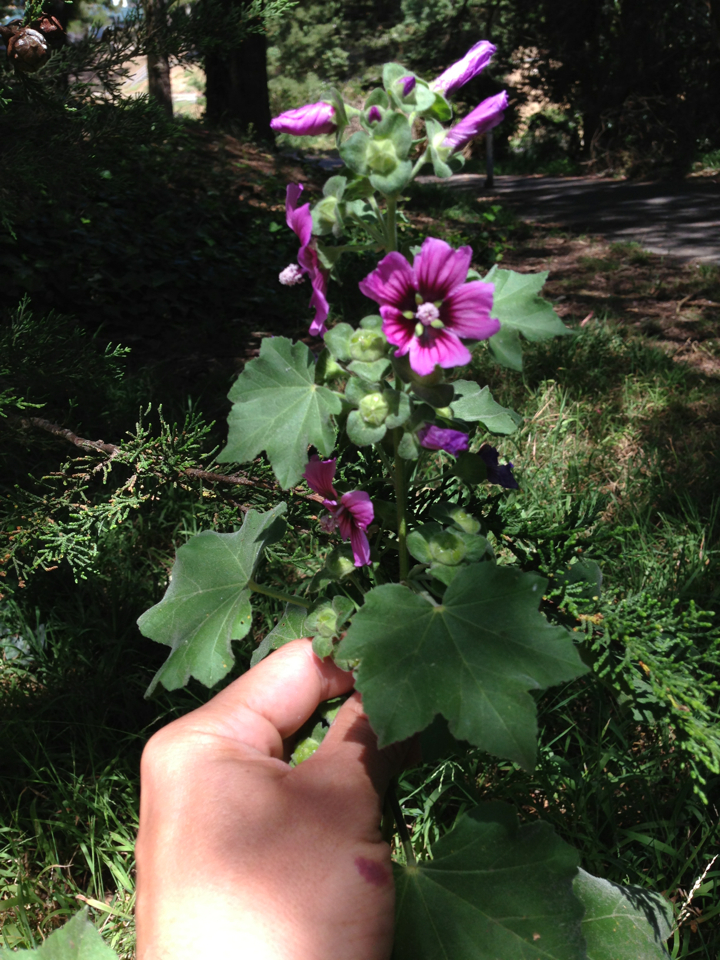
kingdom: Plantae
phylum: Tracheophyta
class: Magnoliopsida
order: Malvales
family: Malvaceae
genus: Malva
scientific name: Malva arborea
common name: Tree mallow
